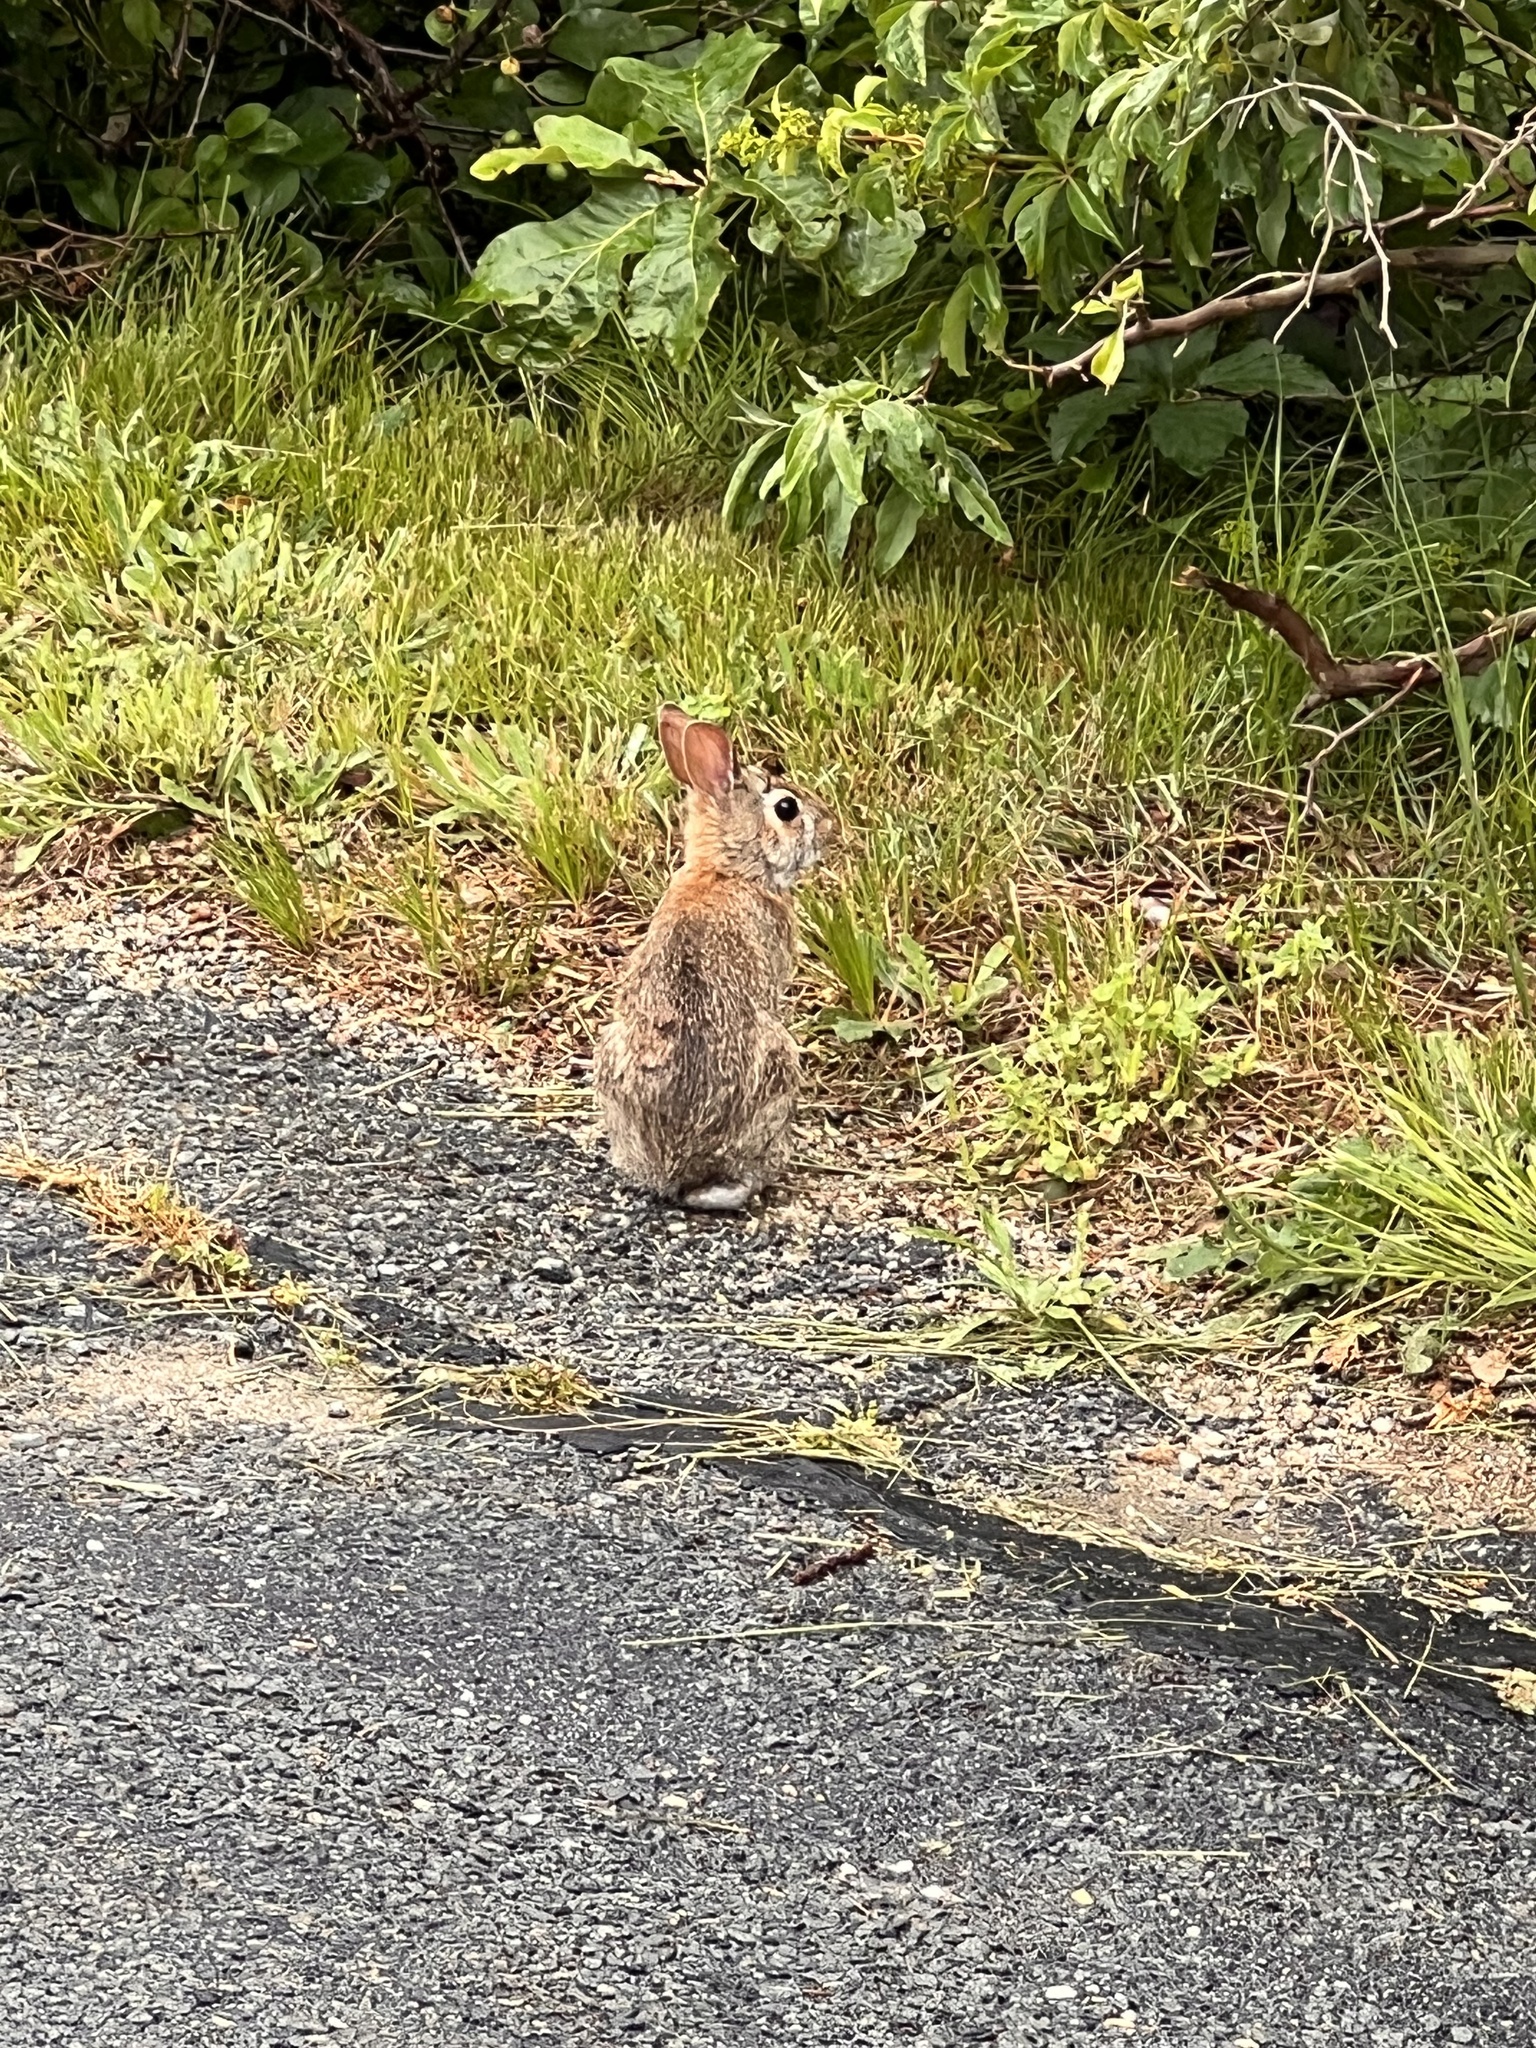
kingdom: Animalia
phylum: Chordata
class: Mammalia
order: Lagomorpha
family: Leporidae
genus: Sylvilagus
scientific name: Sylvilagus floridanus
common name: Eastern cottontail
